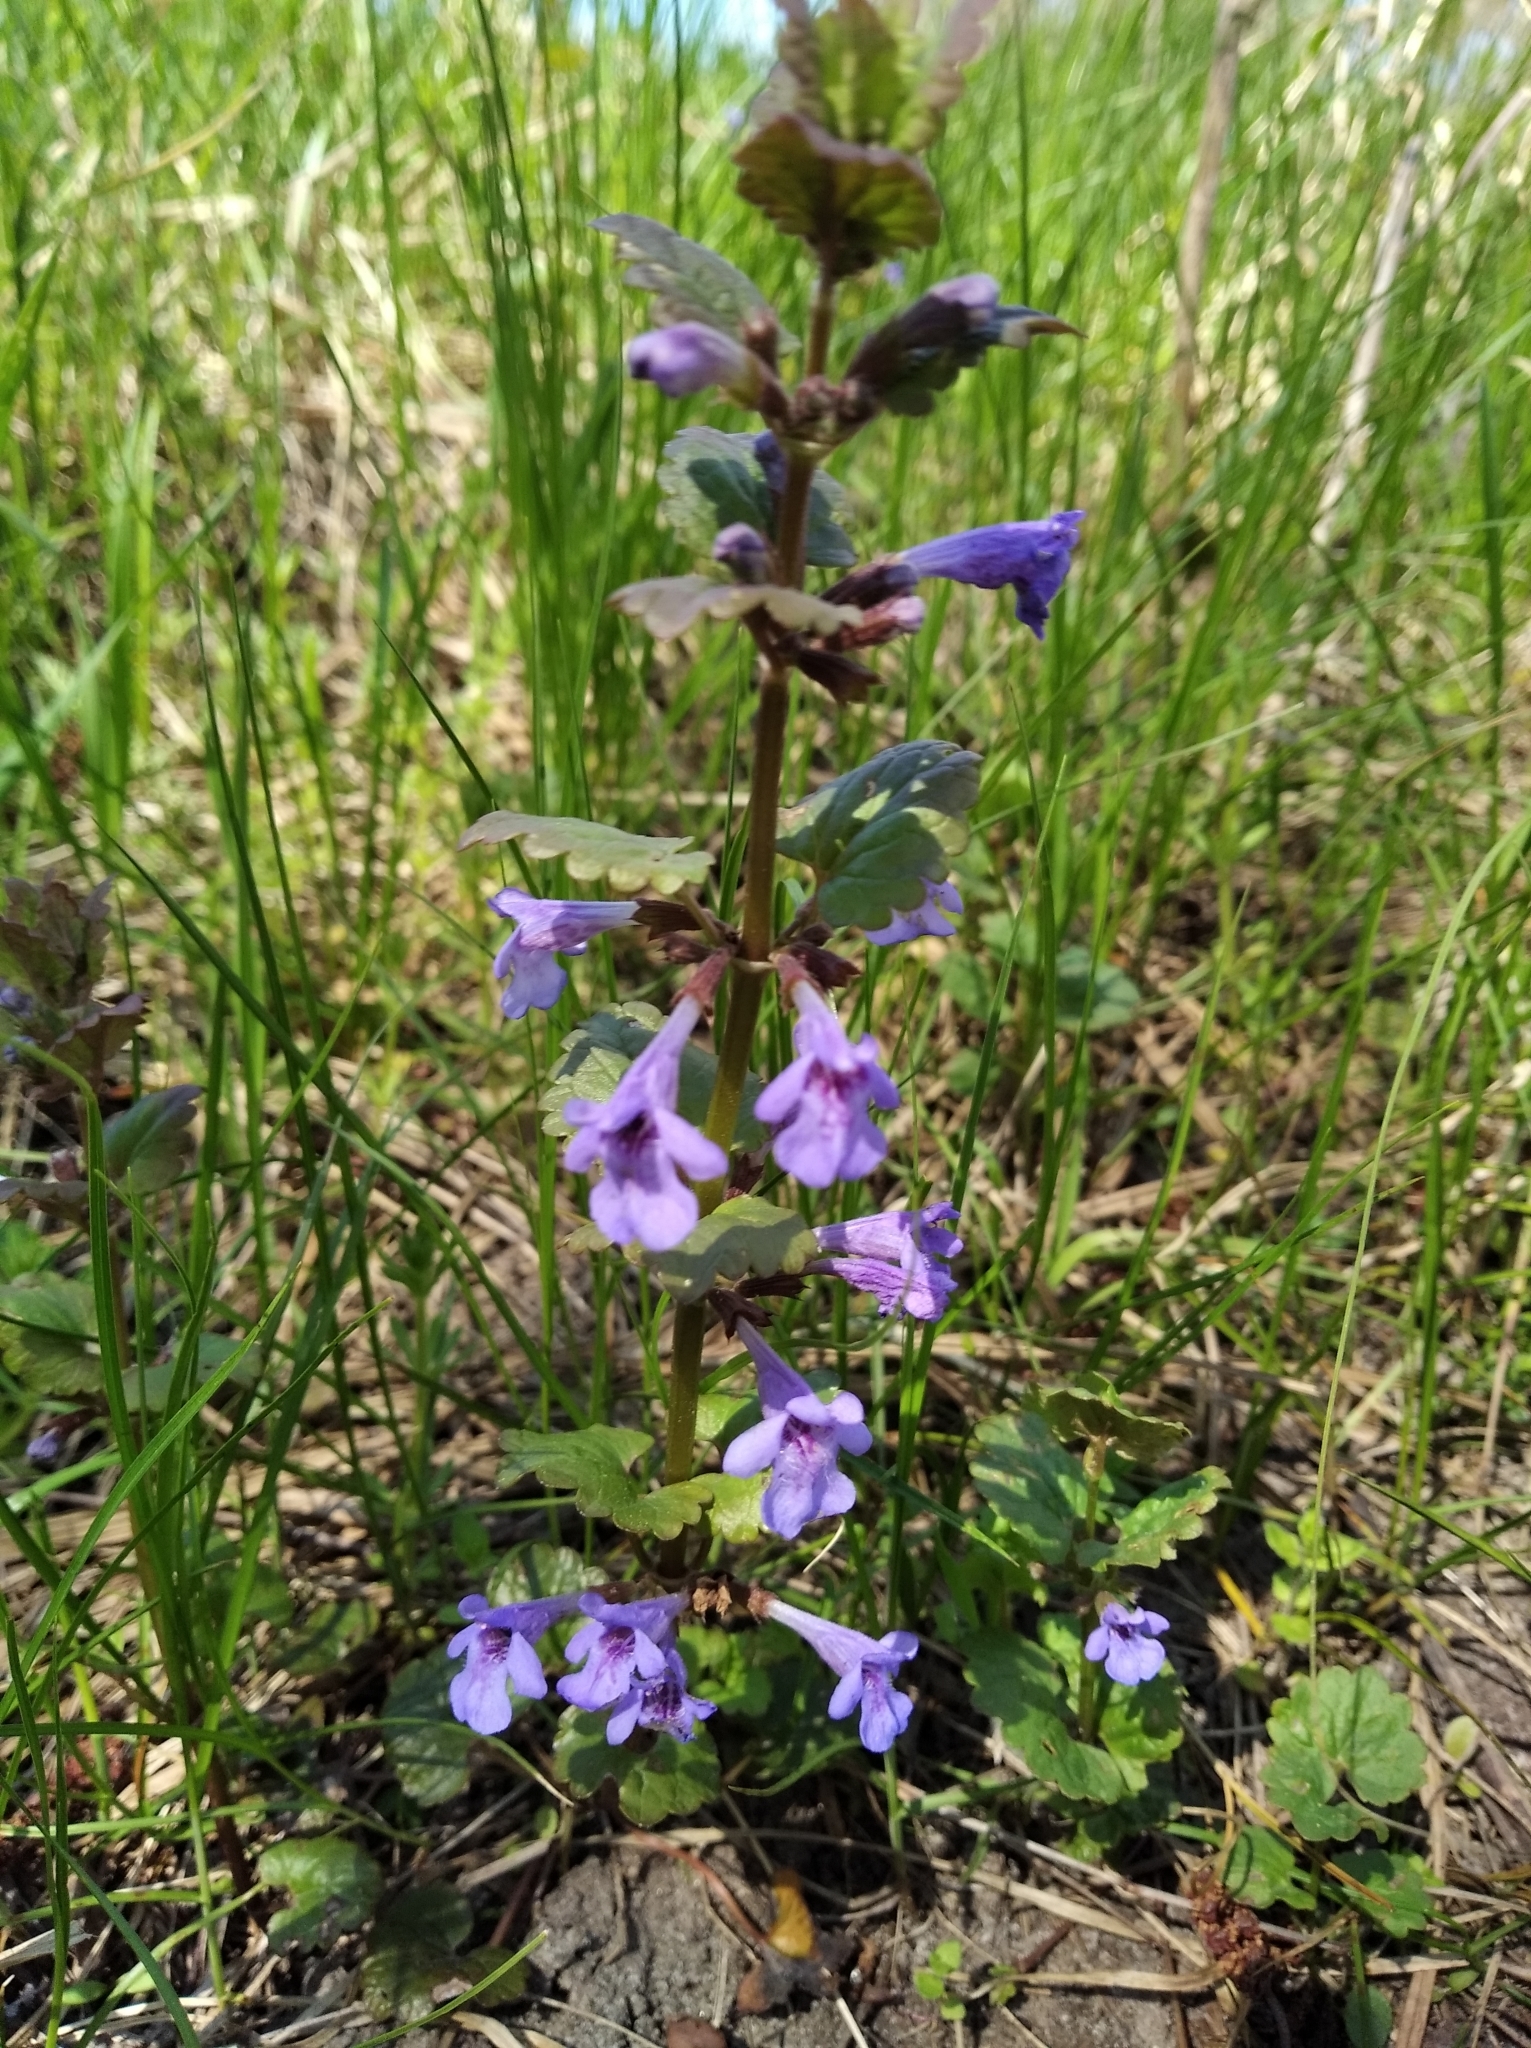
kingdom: Plantae
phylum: Tracheophyta
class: Magnoliopsida
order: Lamiales
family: Lamiaceae
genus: Glechoma
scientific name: Glechoma hederacea
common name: Ground ivy
